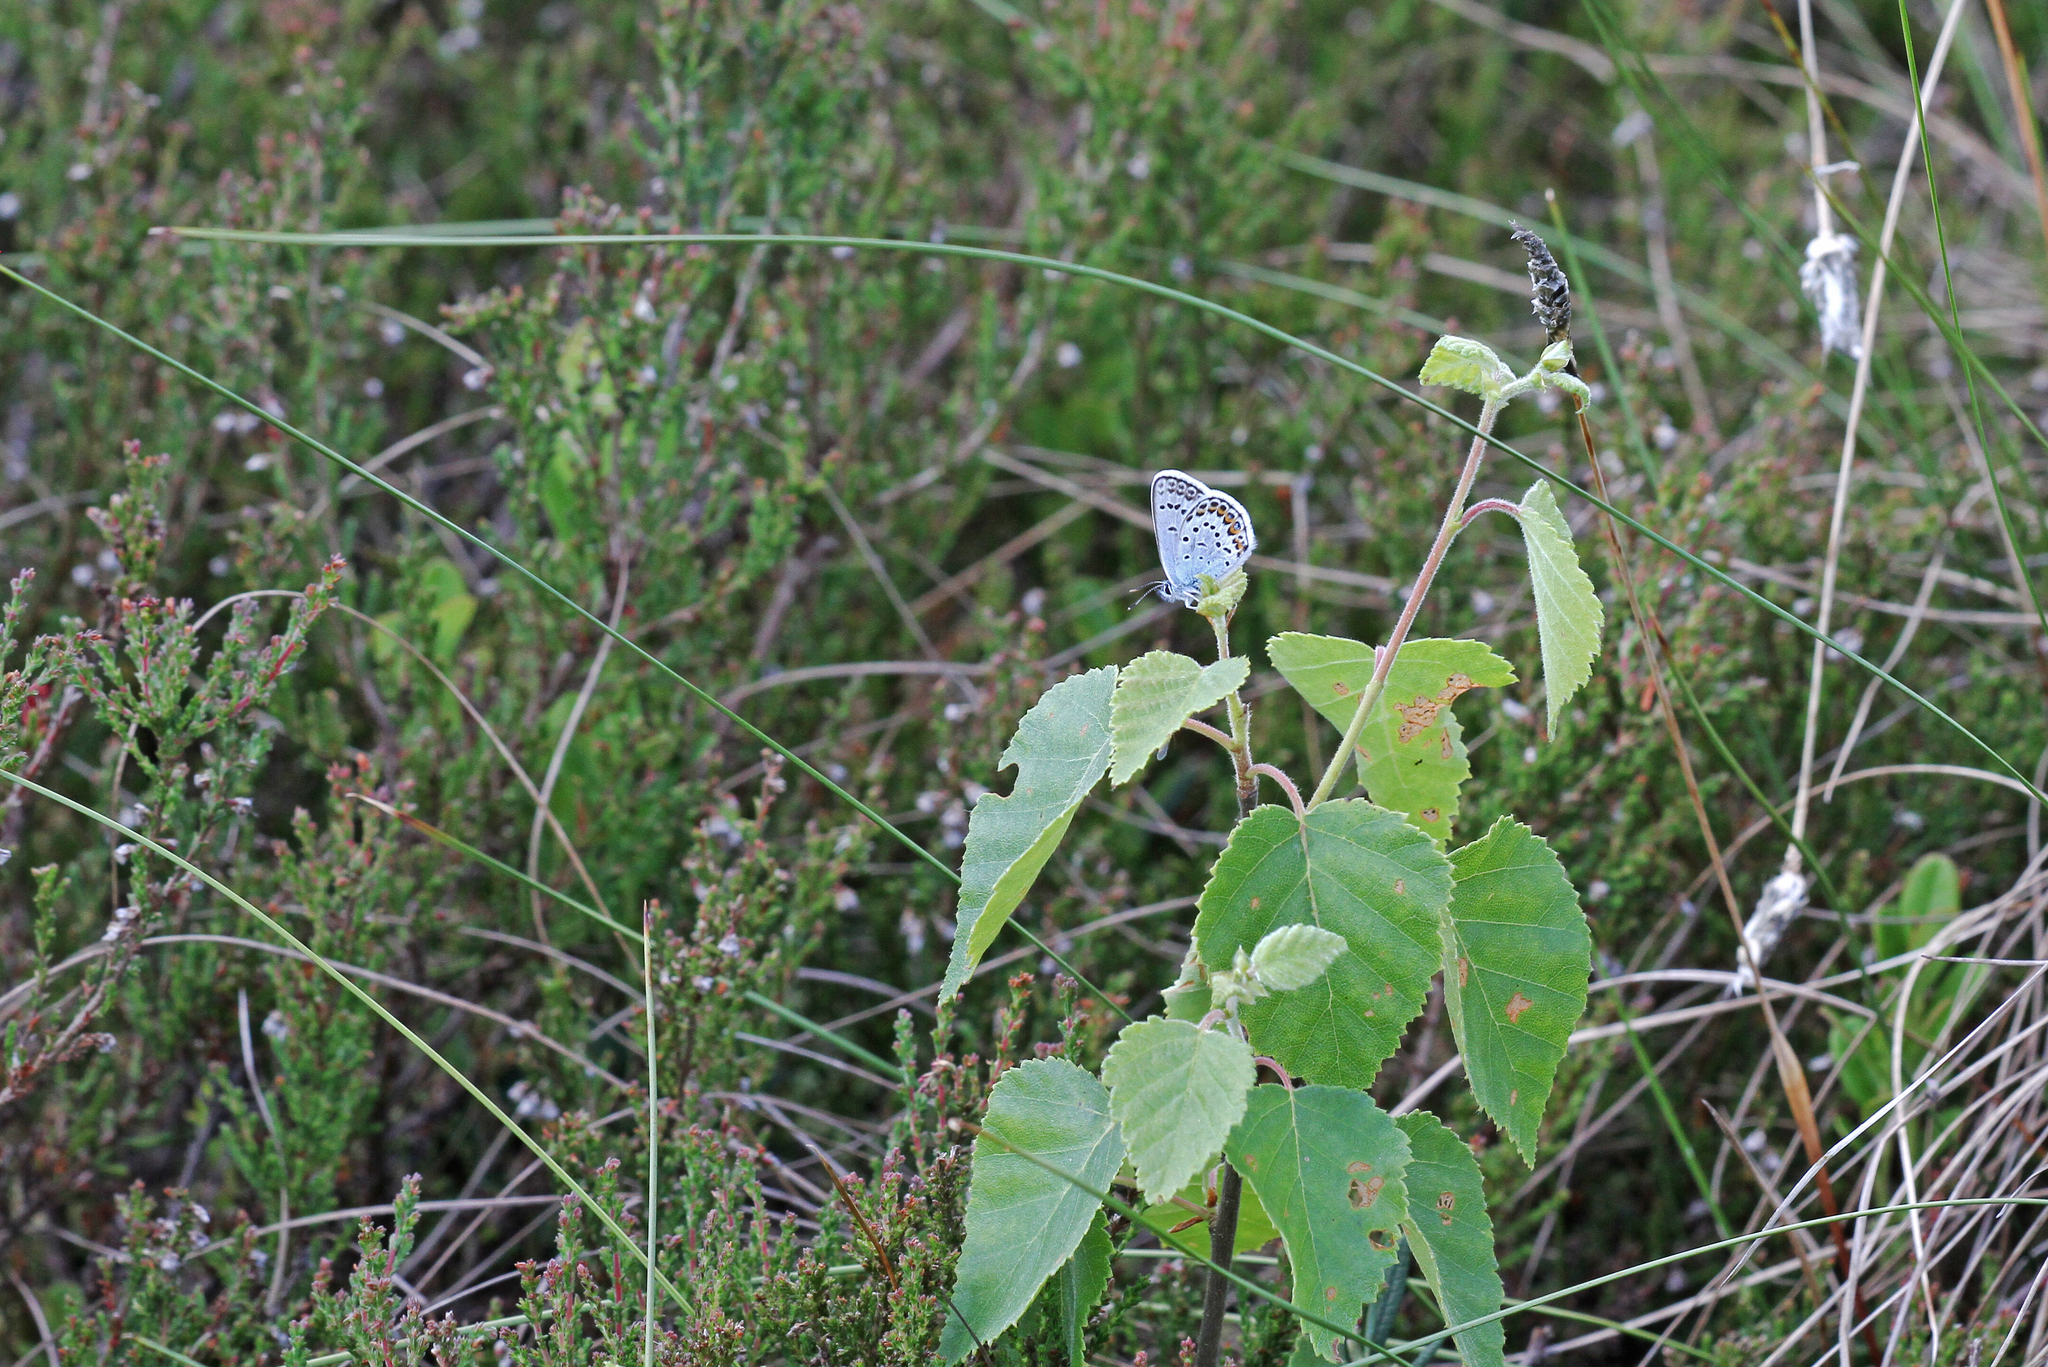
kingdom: Animalia
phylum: Arthropoda
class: Insecta
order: Lepidoptera
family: Lycaenidae
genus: Plebejus
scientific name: Plebejus argus
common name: Silver-studded blue
